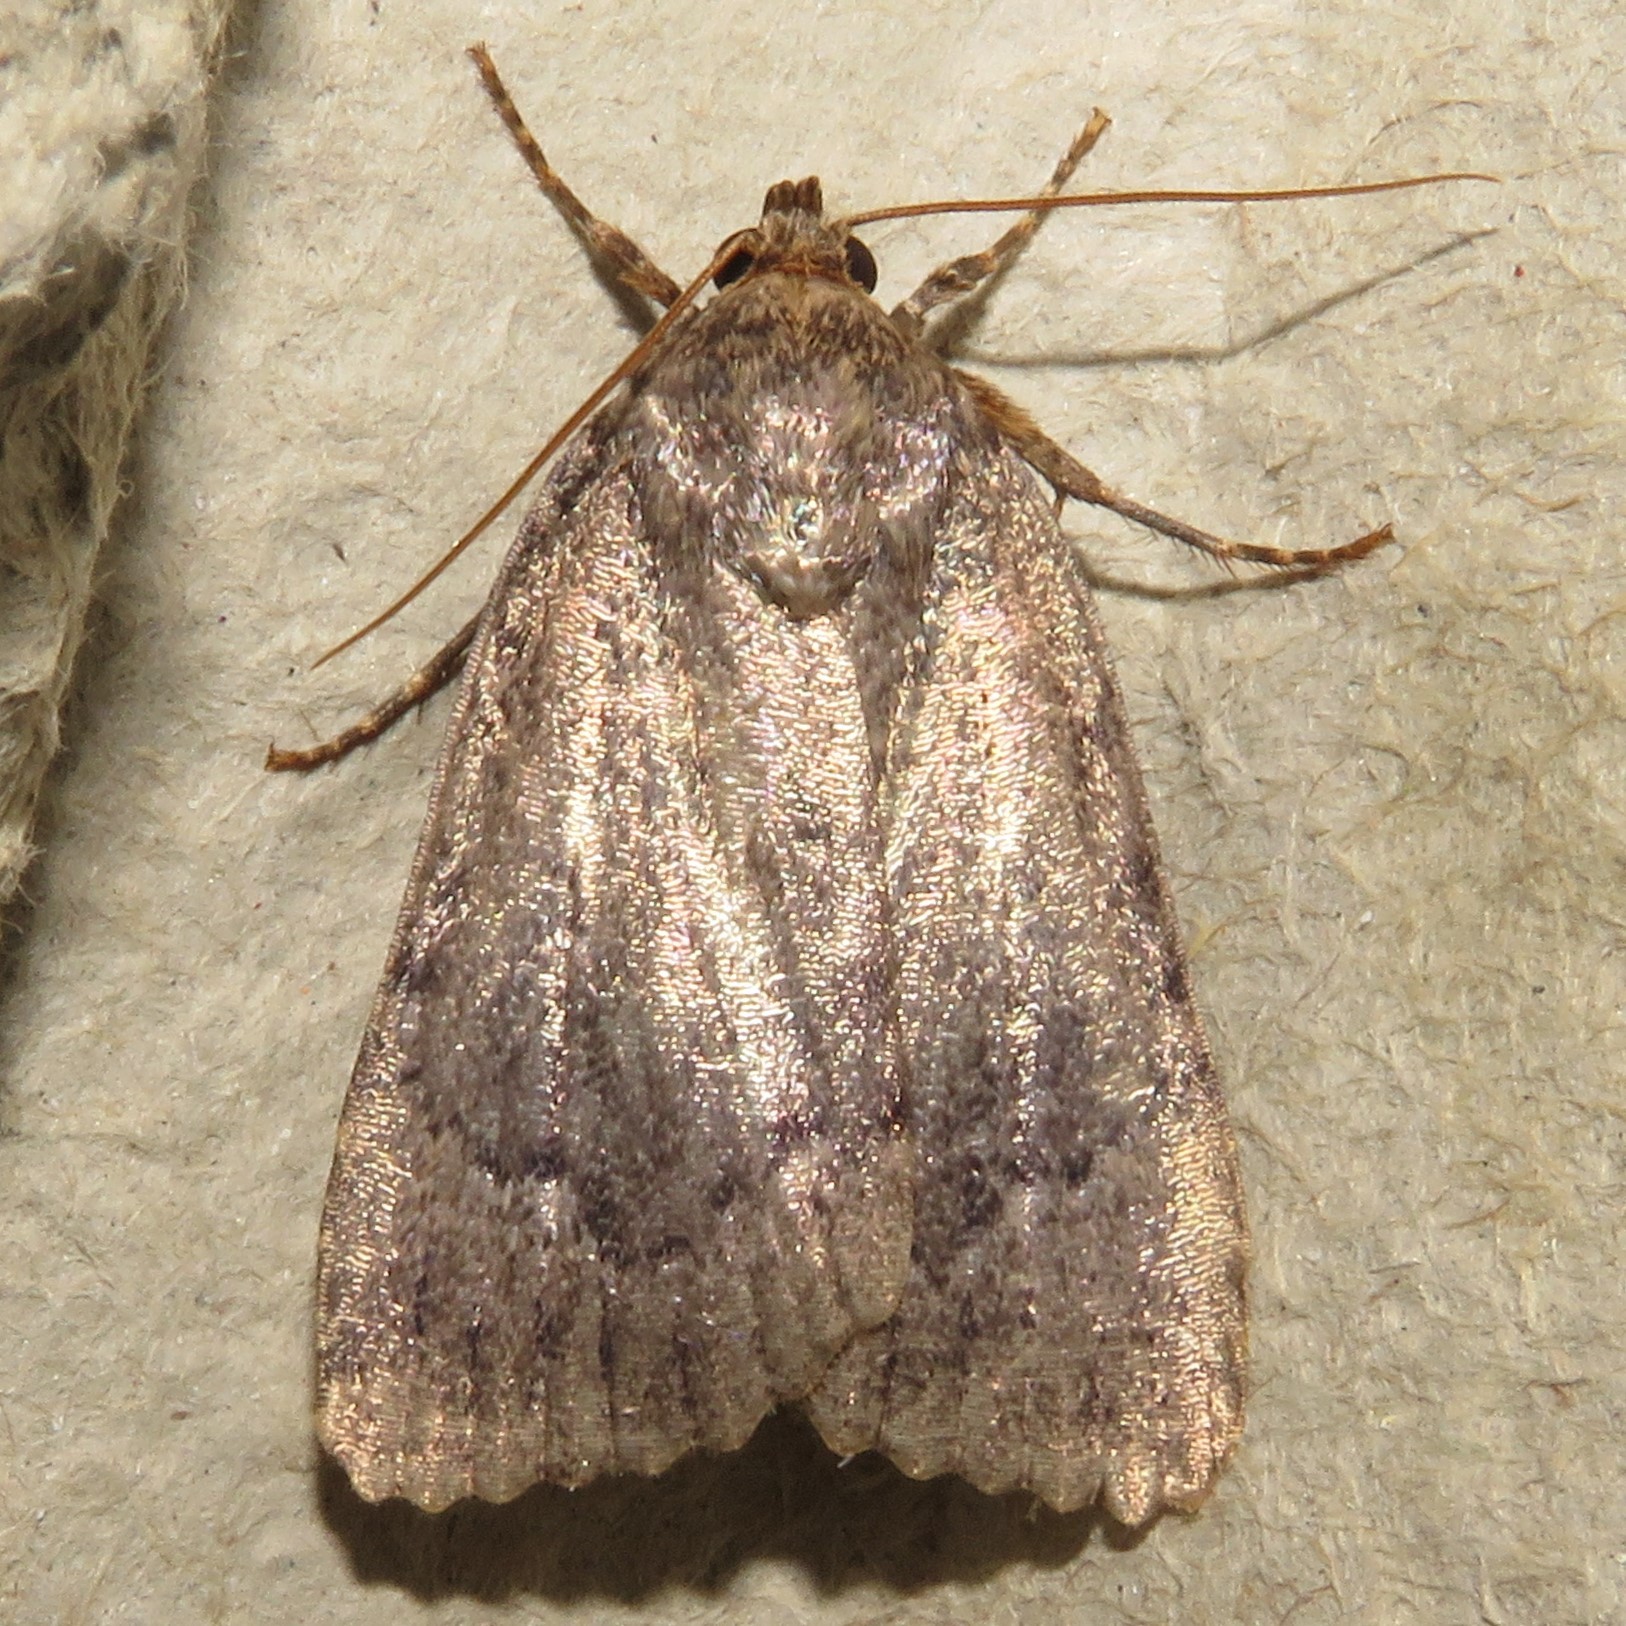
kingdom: Animalia
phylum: Arthropoda
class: Insecta
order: Lepidoptera
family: Noctuidae
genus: Amphipyra
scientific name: Amphipyra pyramidoides
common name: American copper underwing
